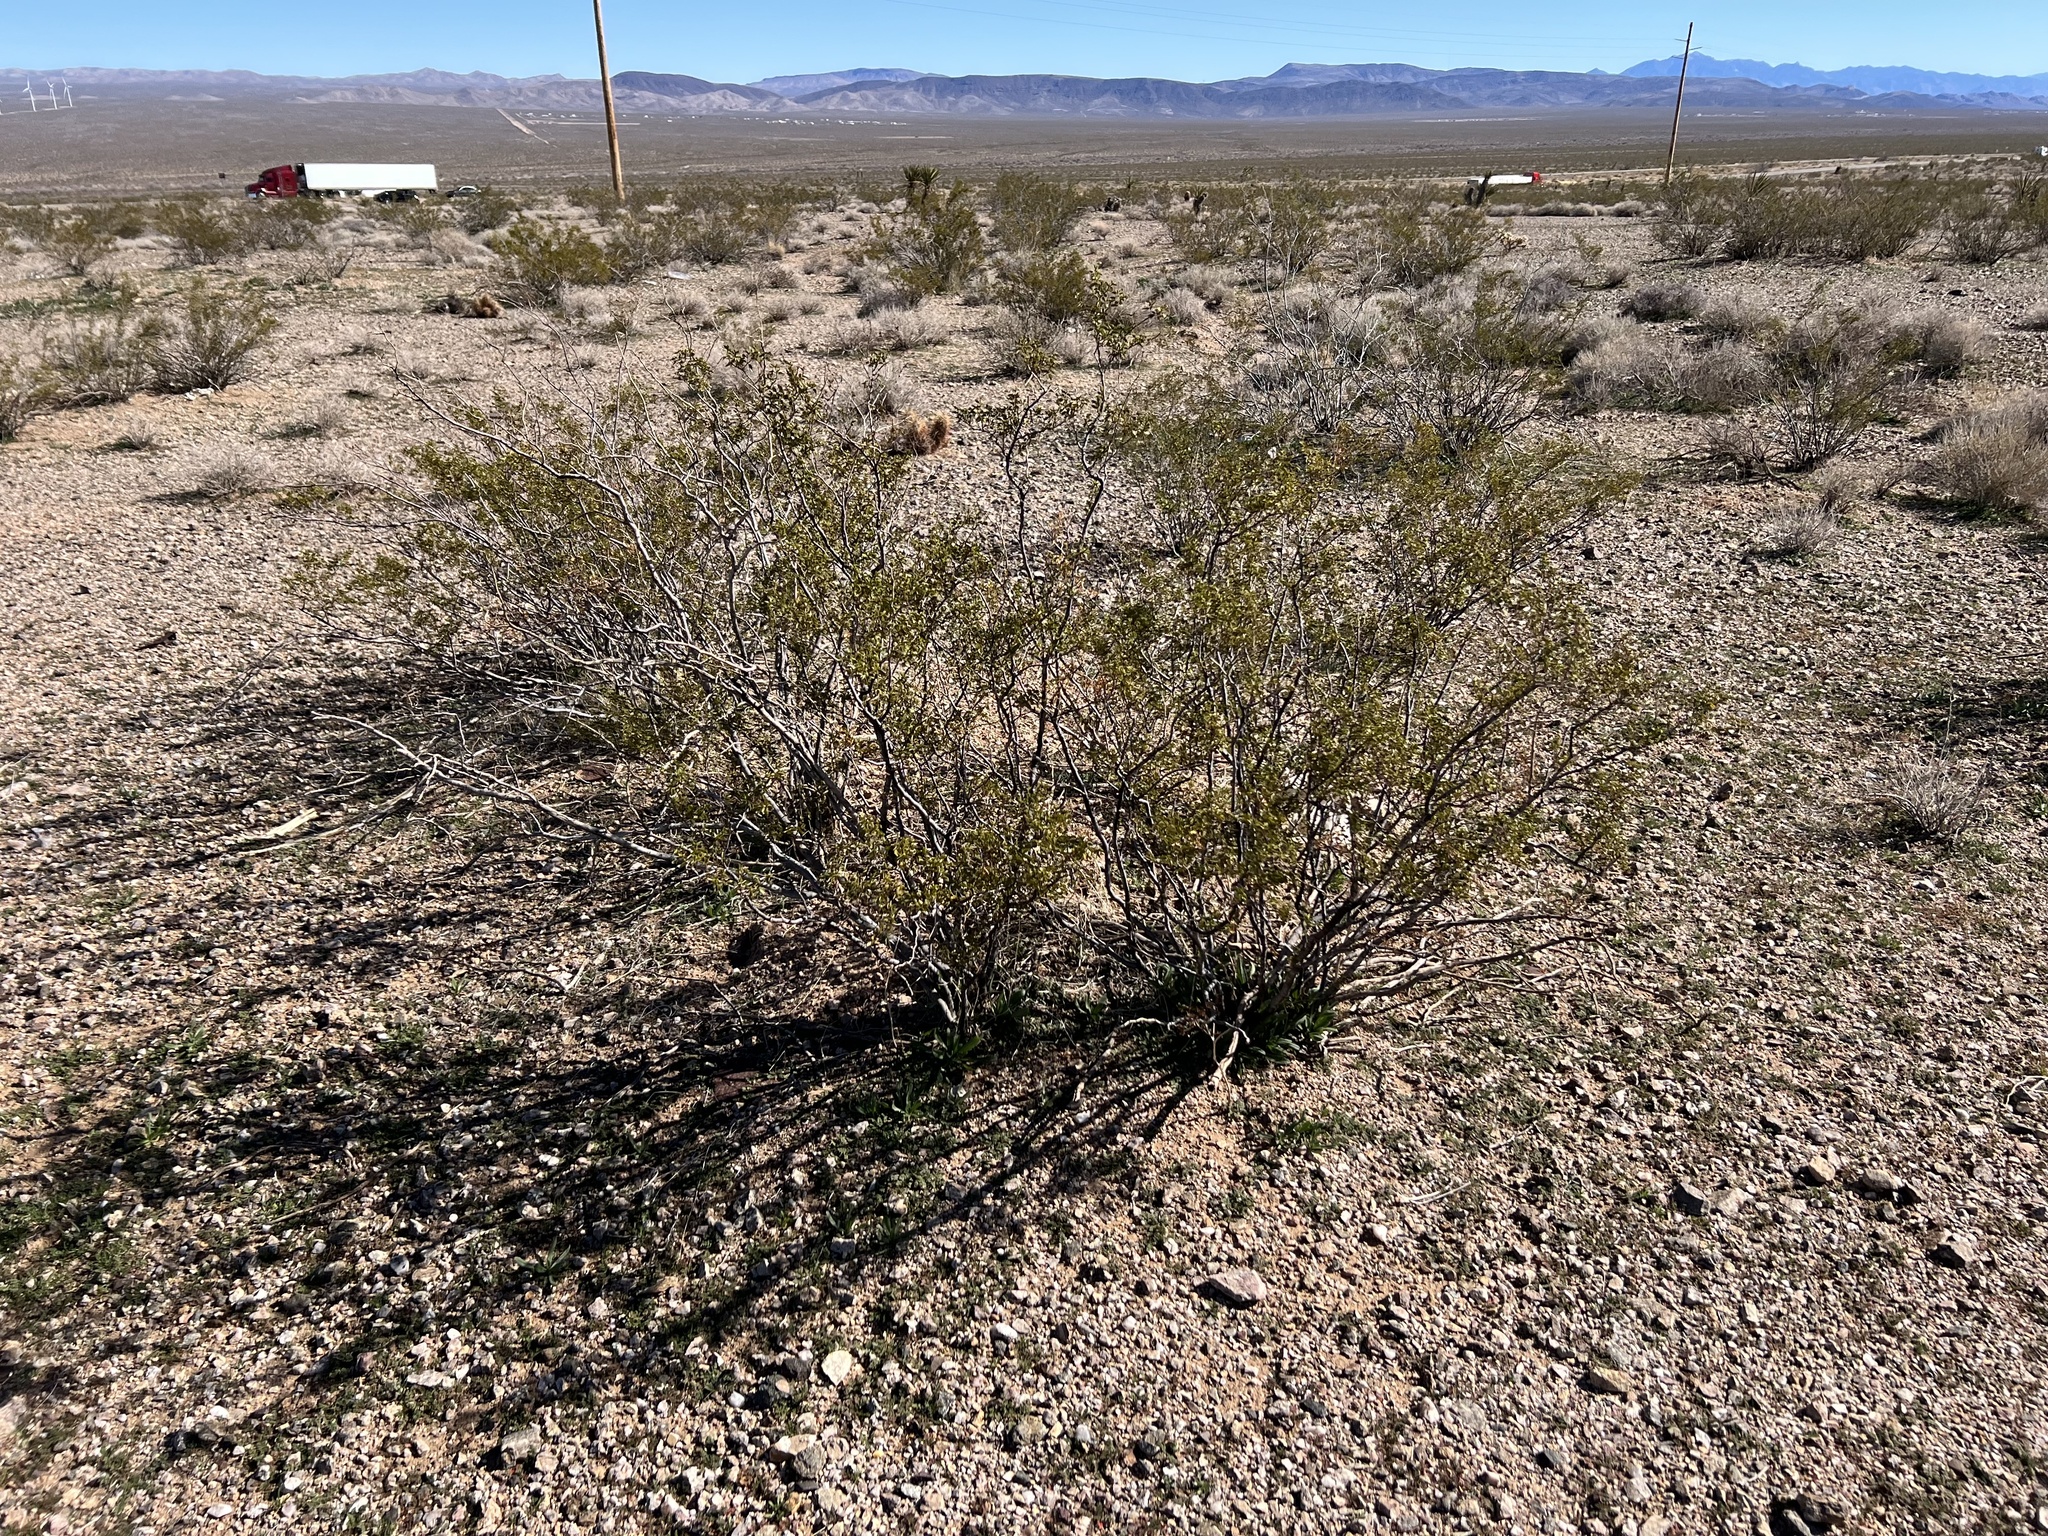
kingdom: Plantae
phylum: Tracheophyta
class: Magnoliopsida
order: Zygophyllales
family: Zygophyllaceae
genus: Larrea
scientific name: Larrea tridentata
